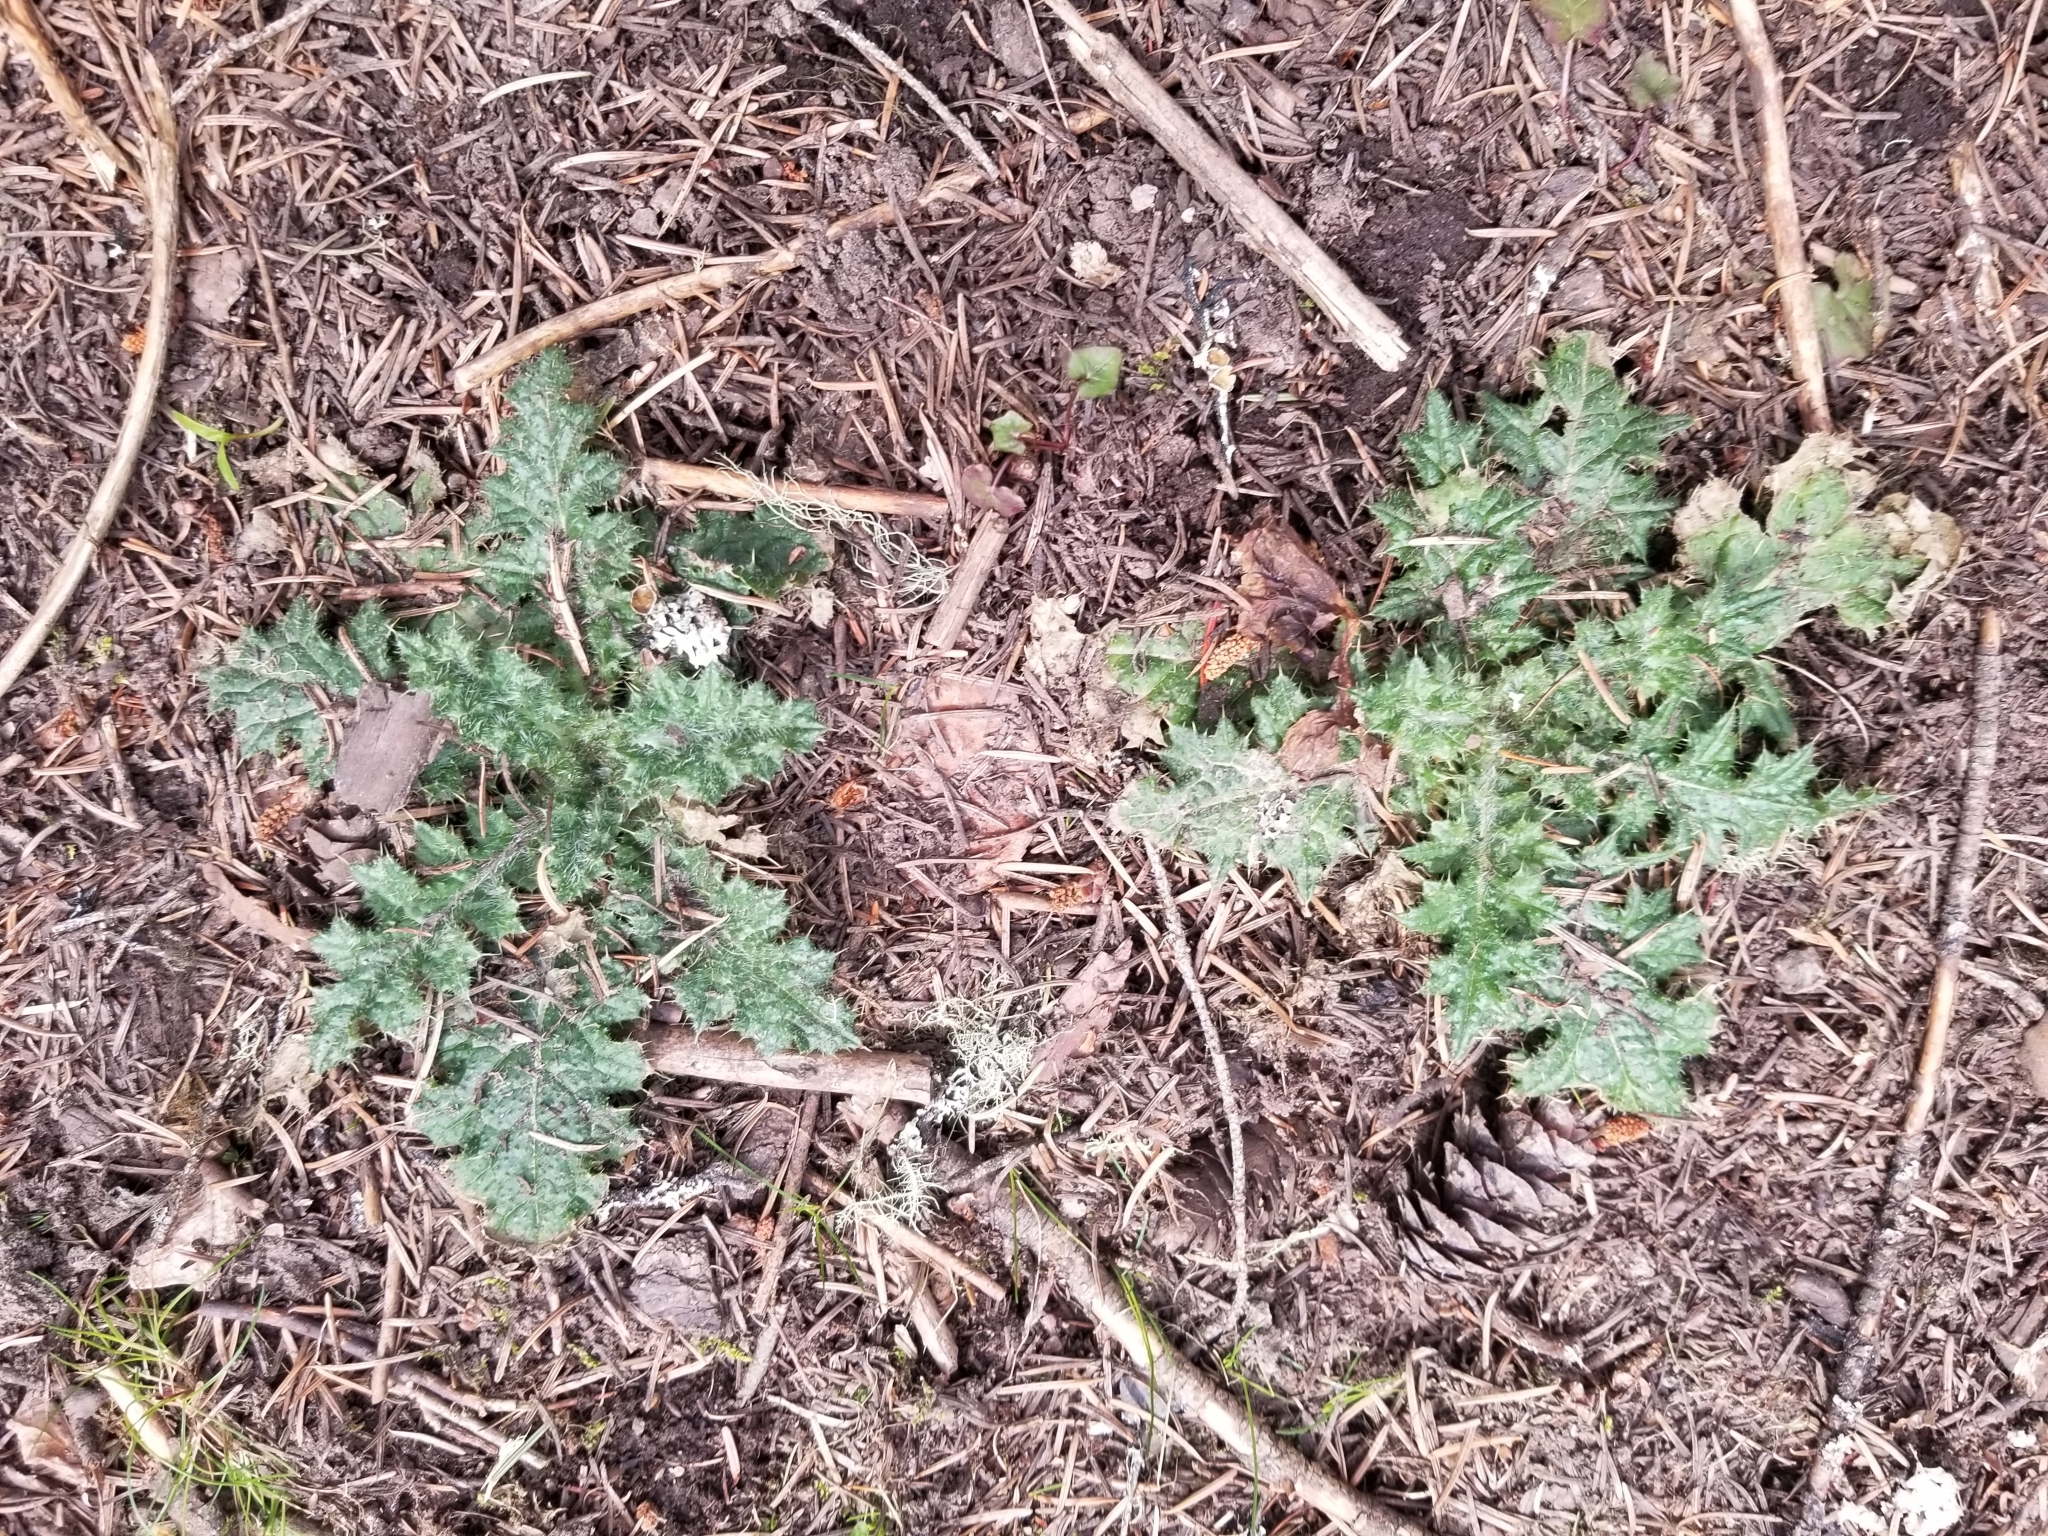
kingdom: Plantae
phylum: Tracheophyta
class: Magnoliopsida
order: Asterales
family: Asteraceae
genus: Cirsium
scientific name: Cirsium vulgare
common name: Bull thistle
